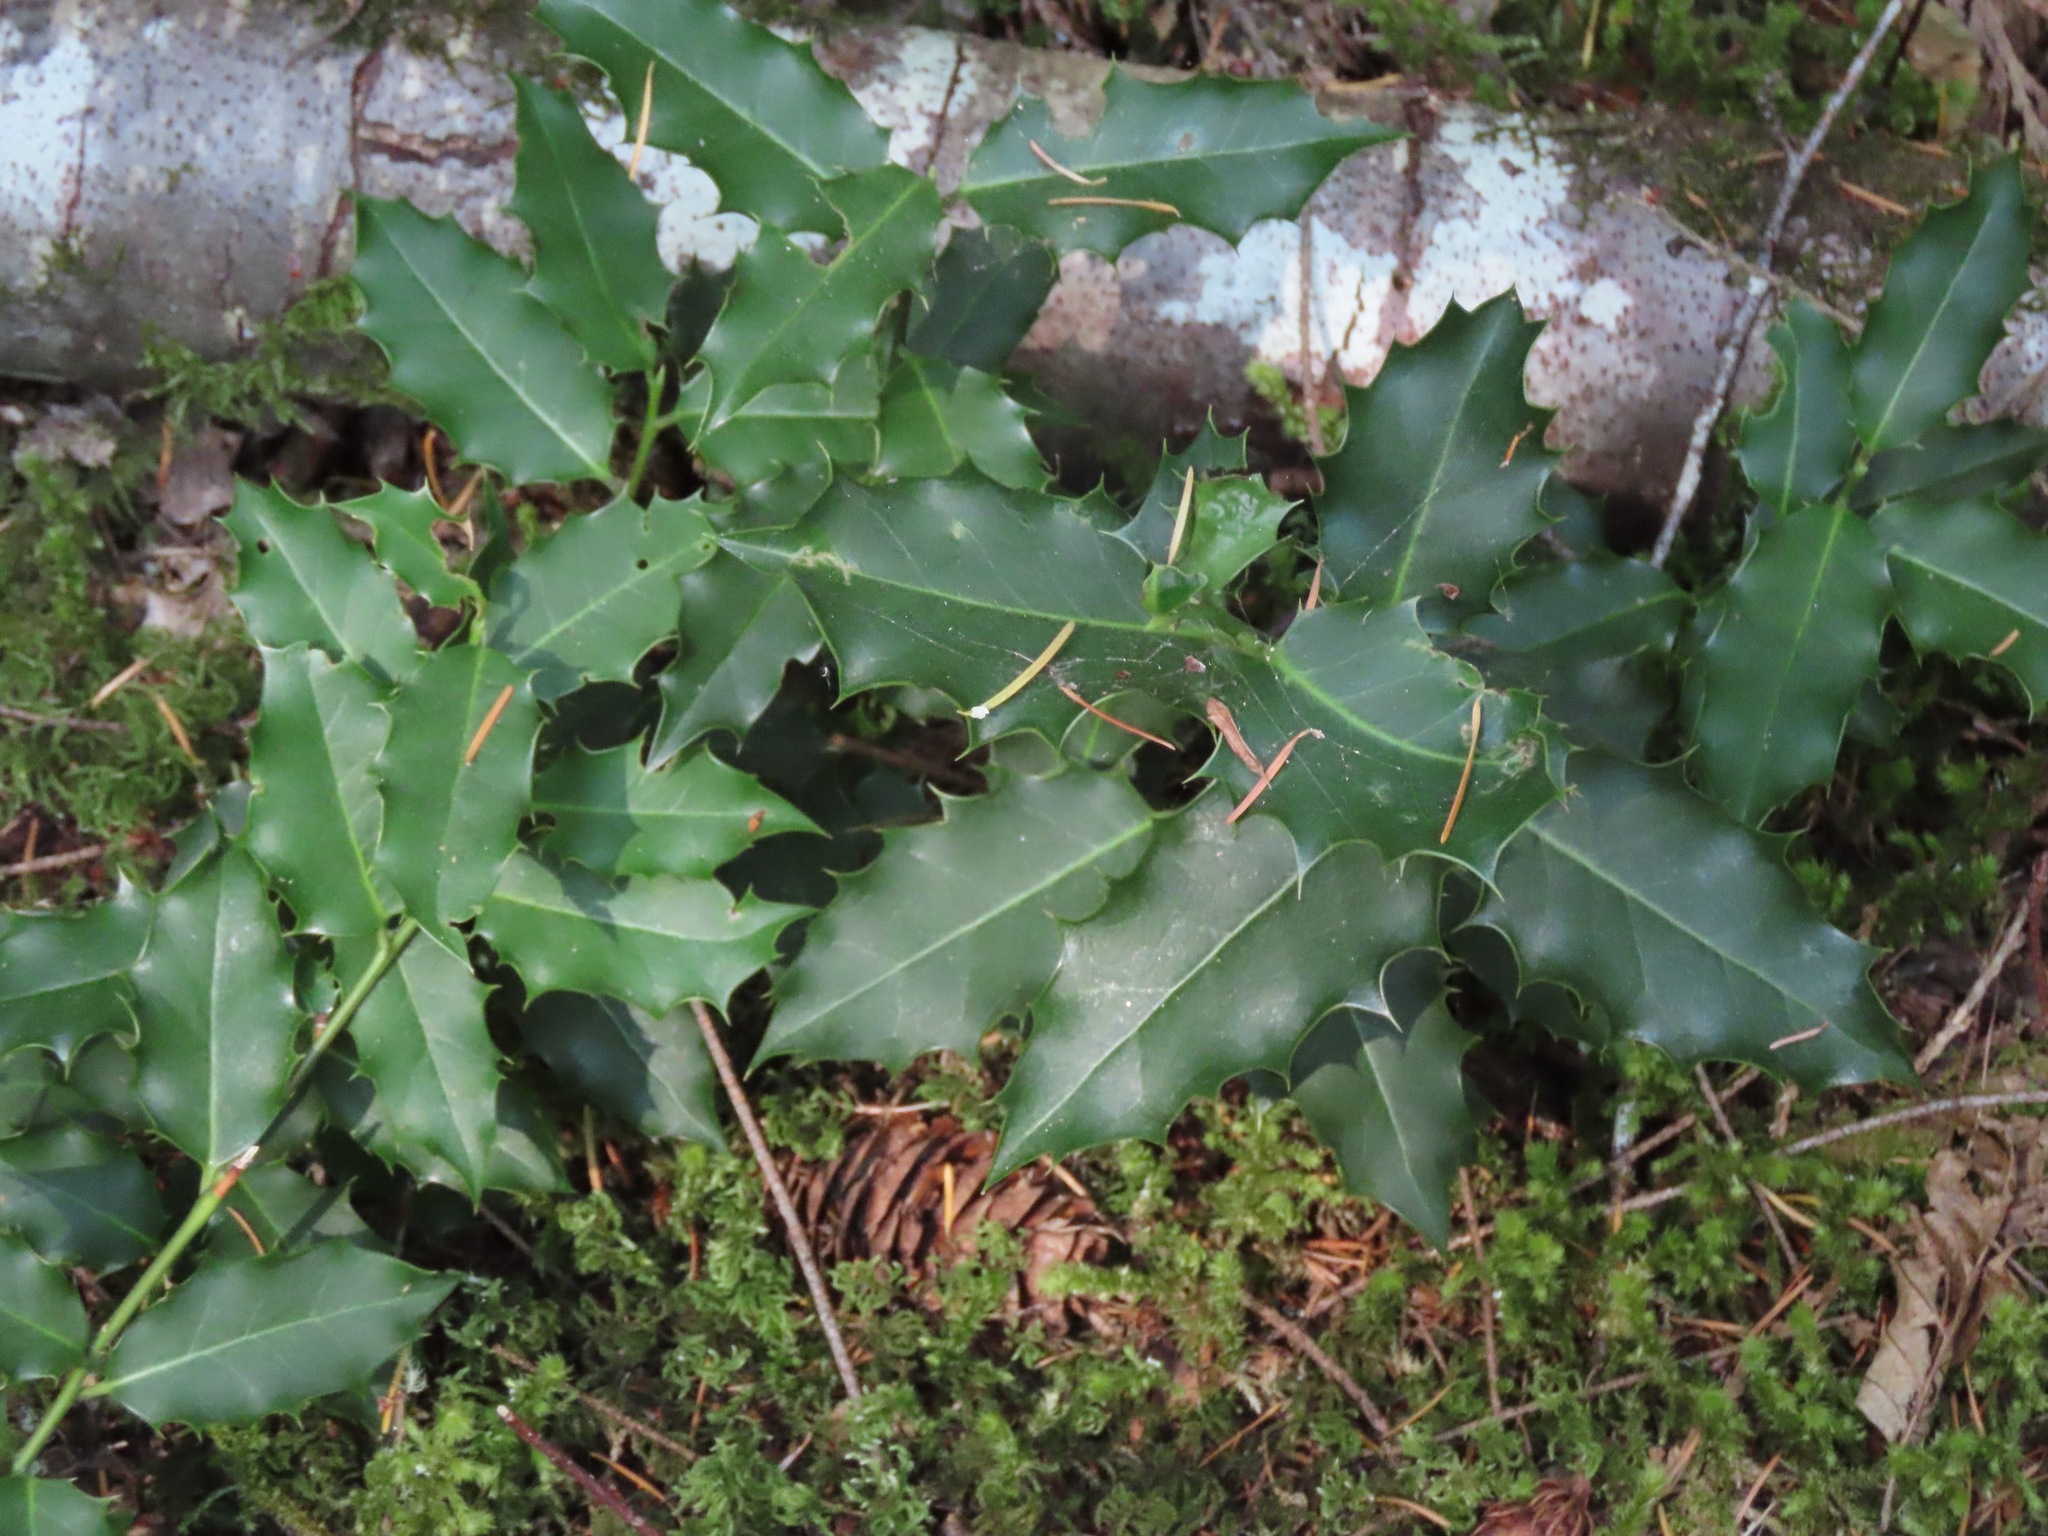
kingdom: Plantae
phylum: Tracheophyta
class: Magnoliopsida
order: Aquifoliales
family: Aquifoliaceae
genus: Ilex
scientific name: Ilex aquifolium
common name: English holly
